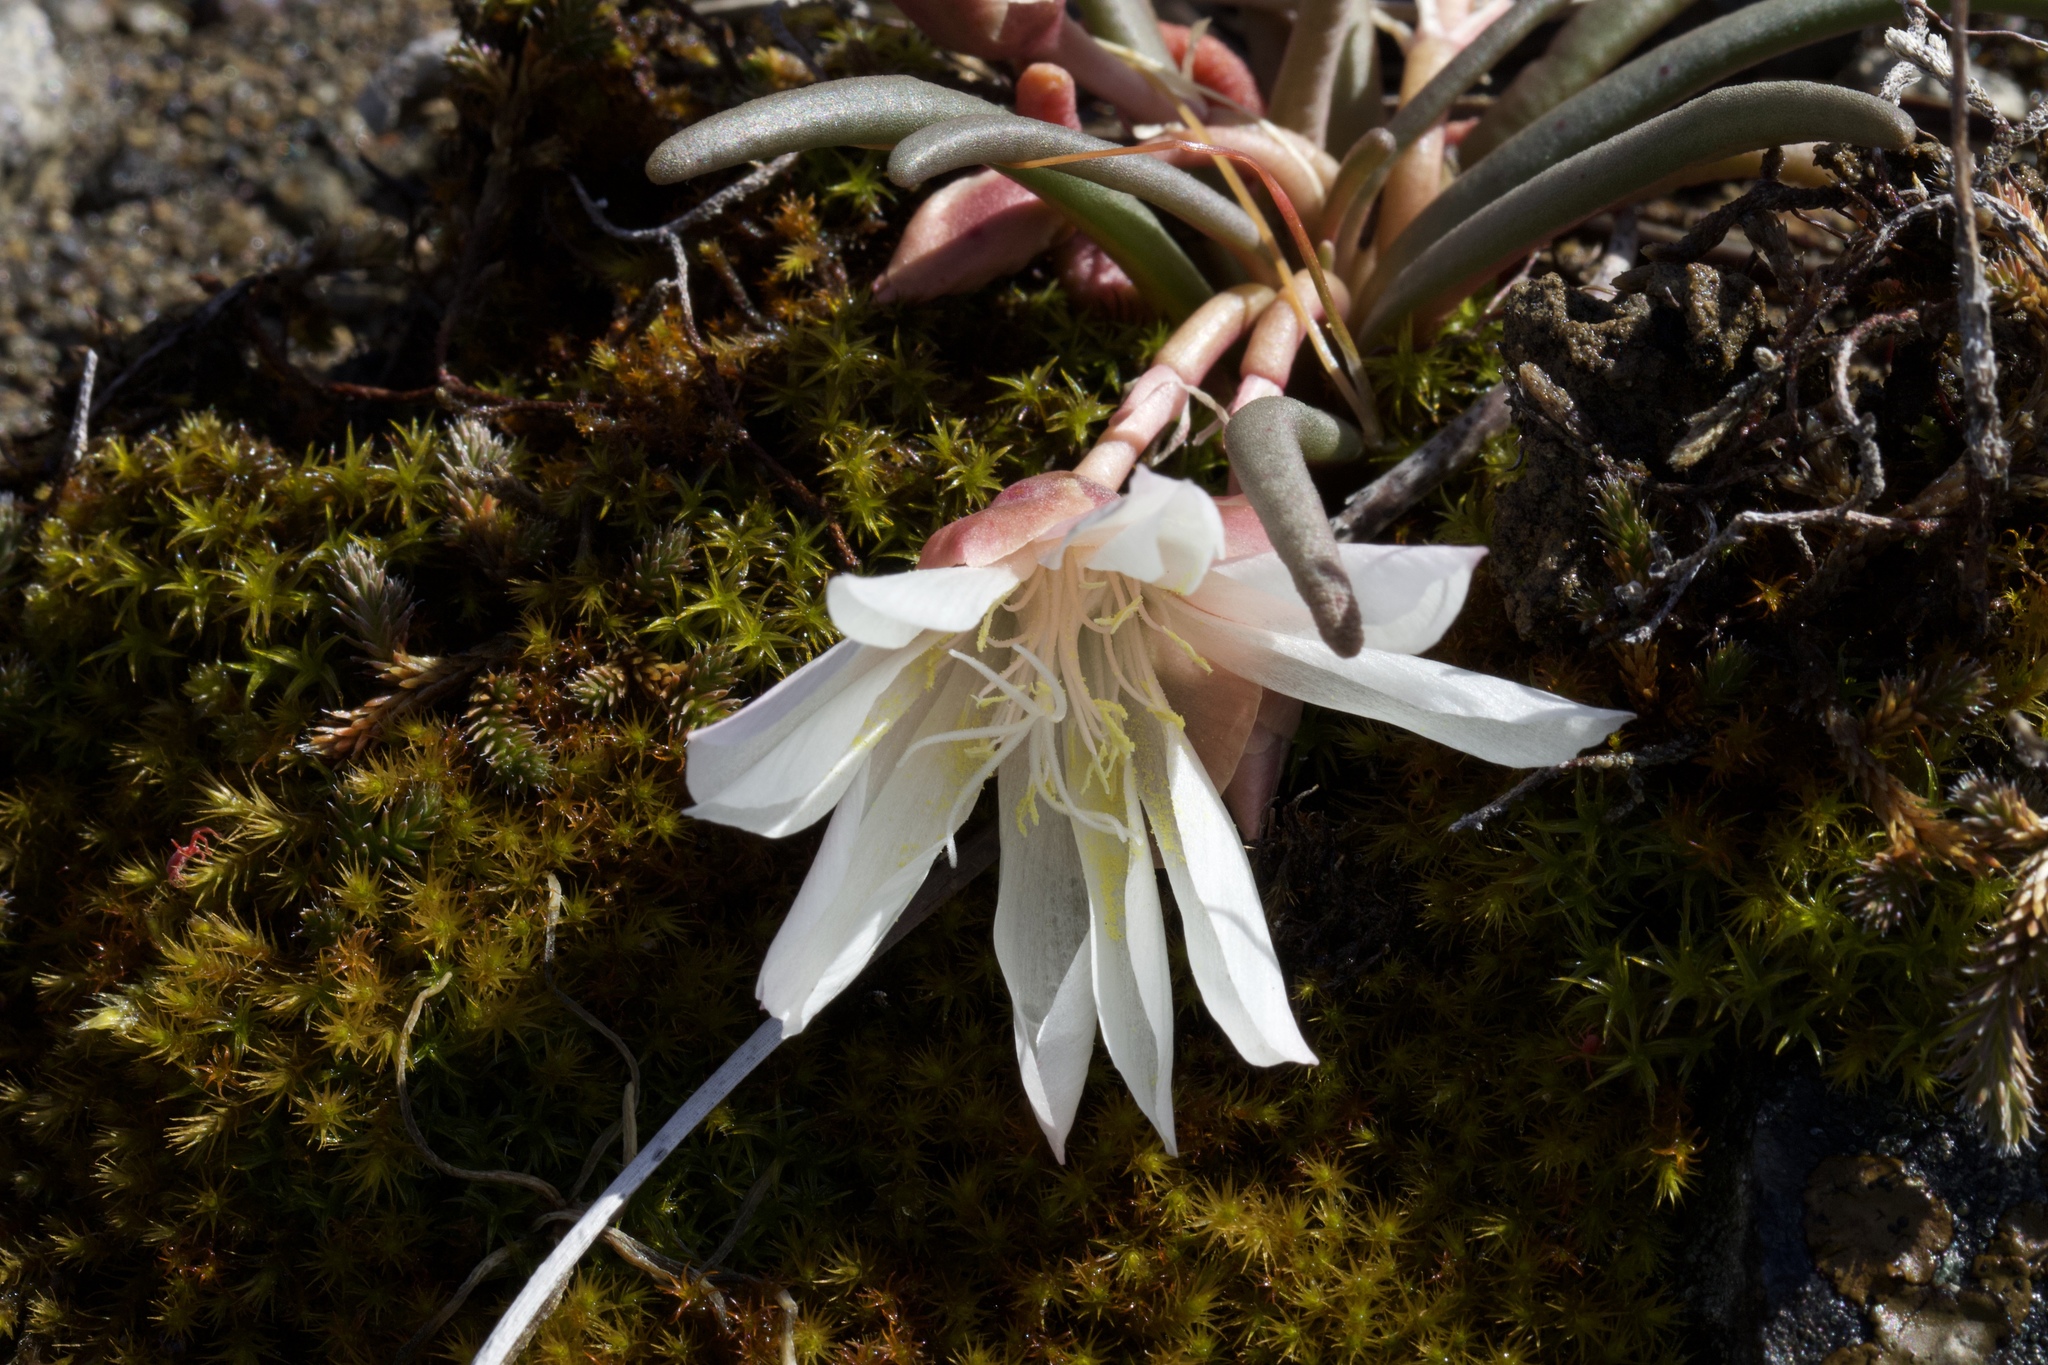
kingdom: Plantae
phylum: Tracheophyta
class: Magnoliopsida
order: Caryophyllales
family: Montiaceae
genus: Lewisia
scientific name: Lewisia rediviva
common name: Bitter-root
